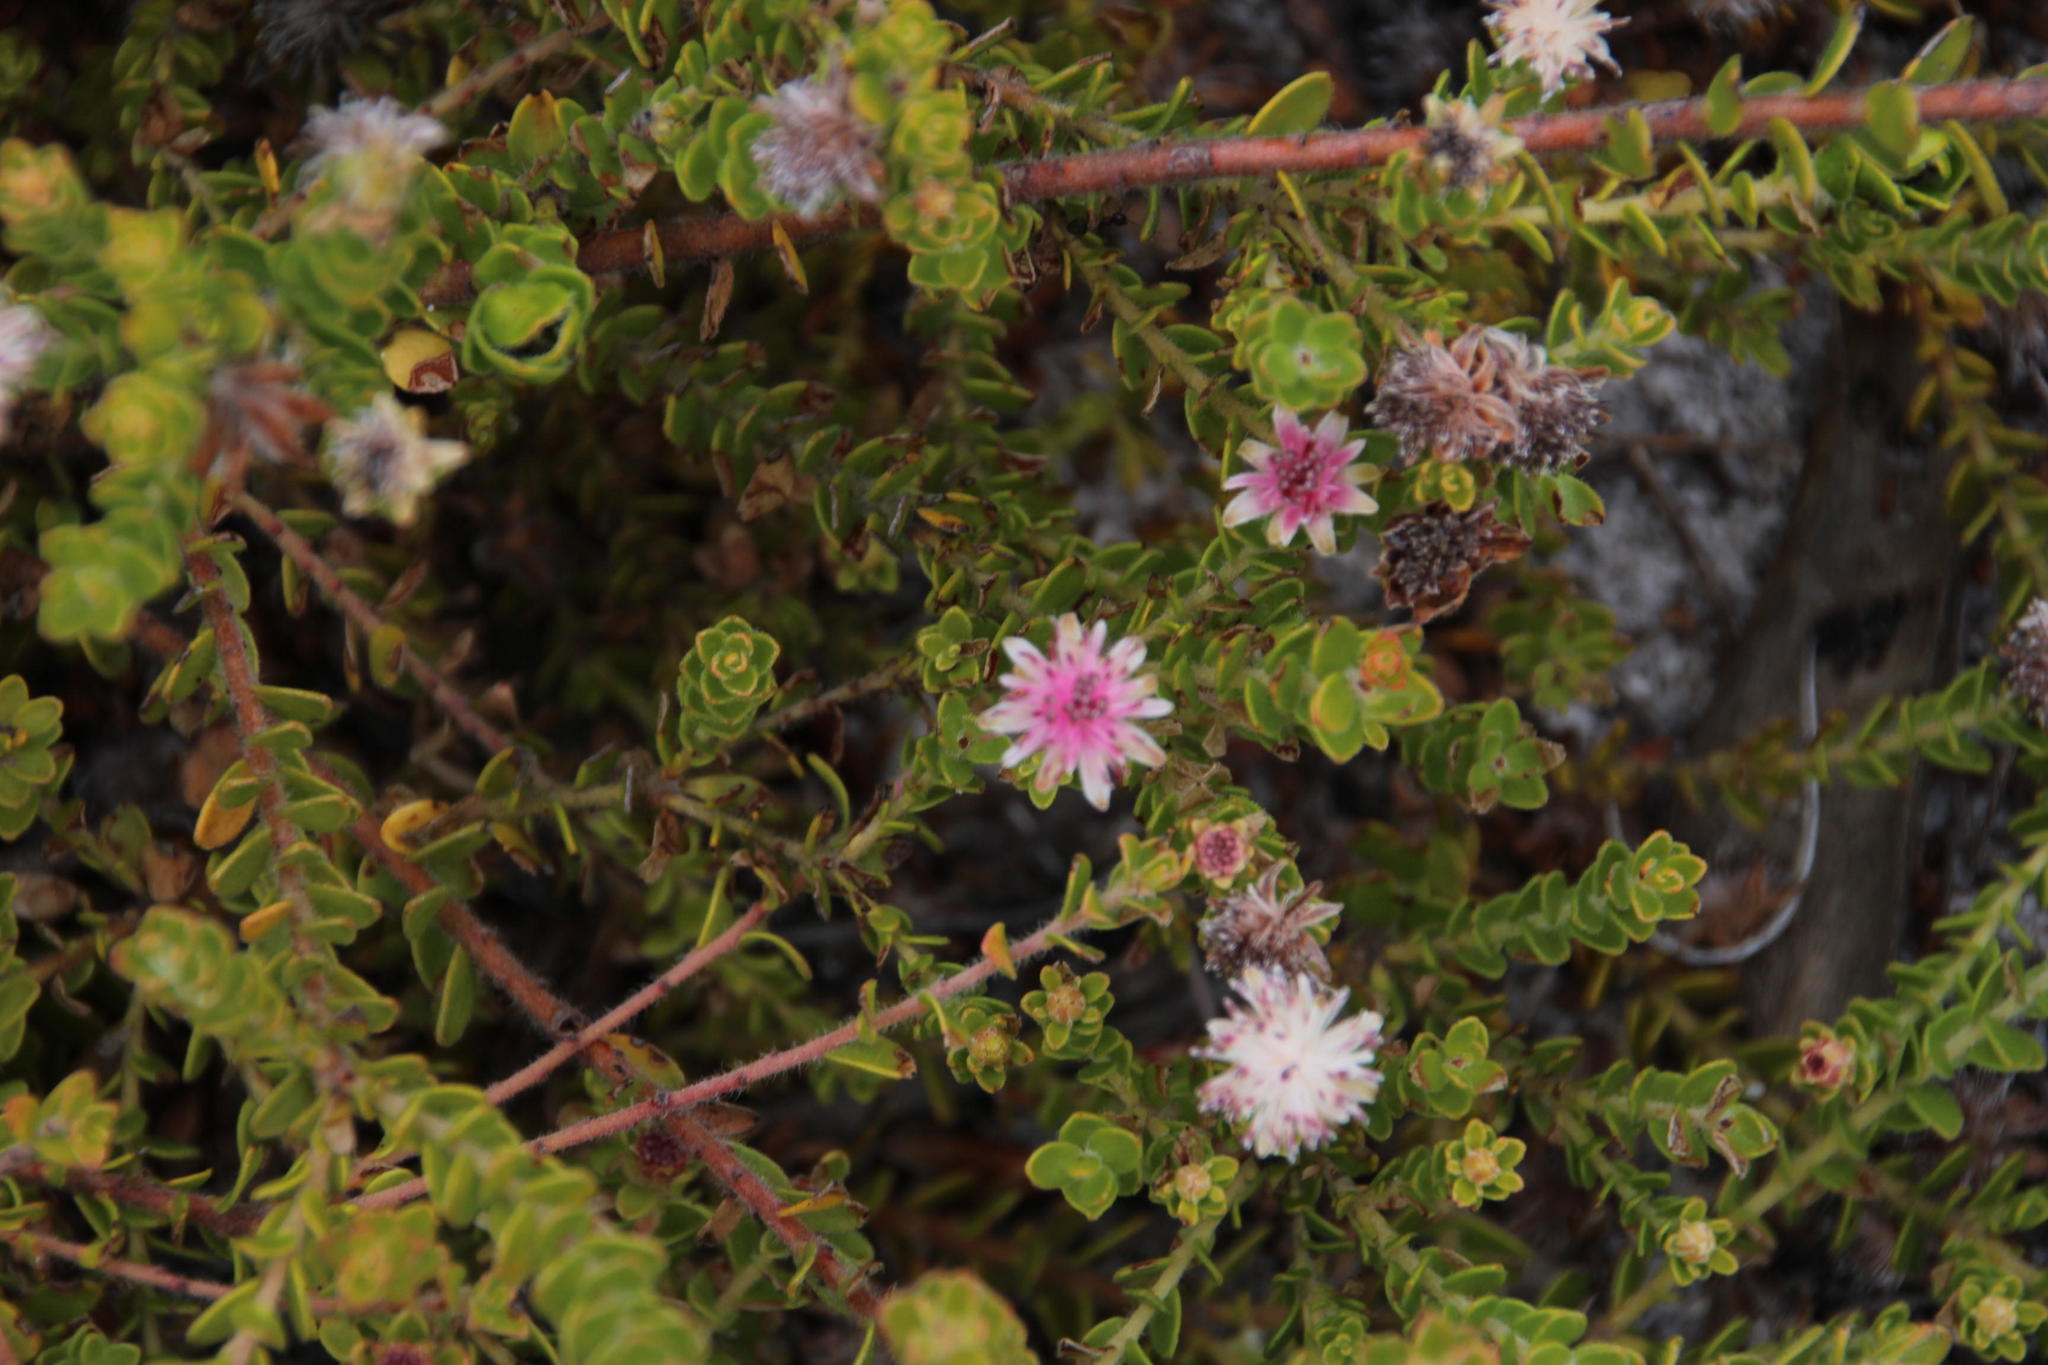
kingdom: Plantae
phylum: Tracheophyta
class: Magnoliopsida
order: Proteales
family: Proteaceae
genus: Diastella
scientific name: Diastella divaricata
